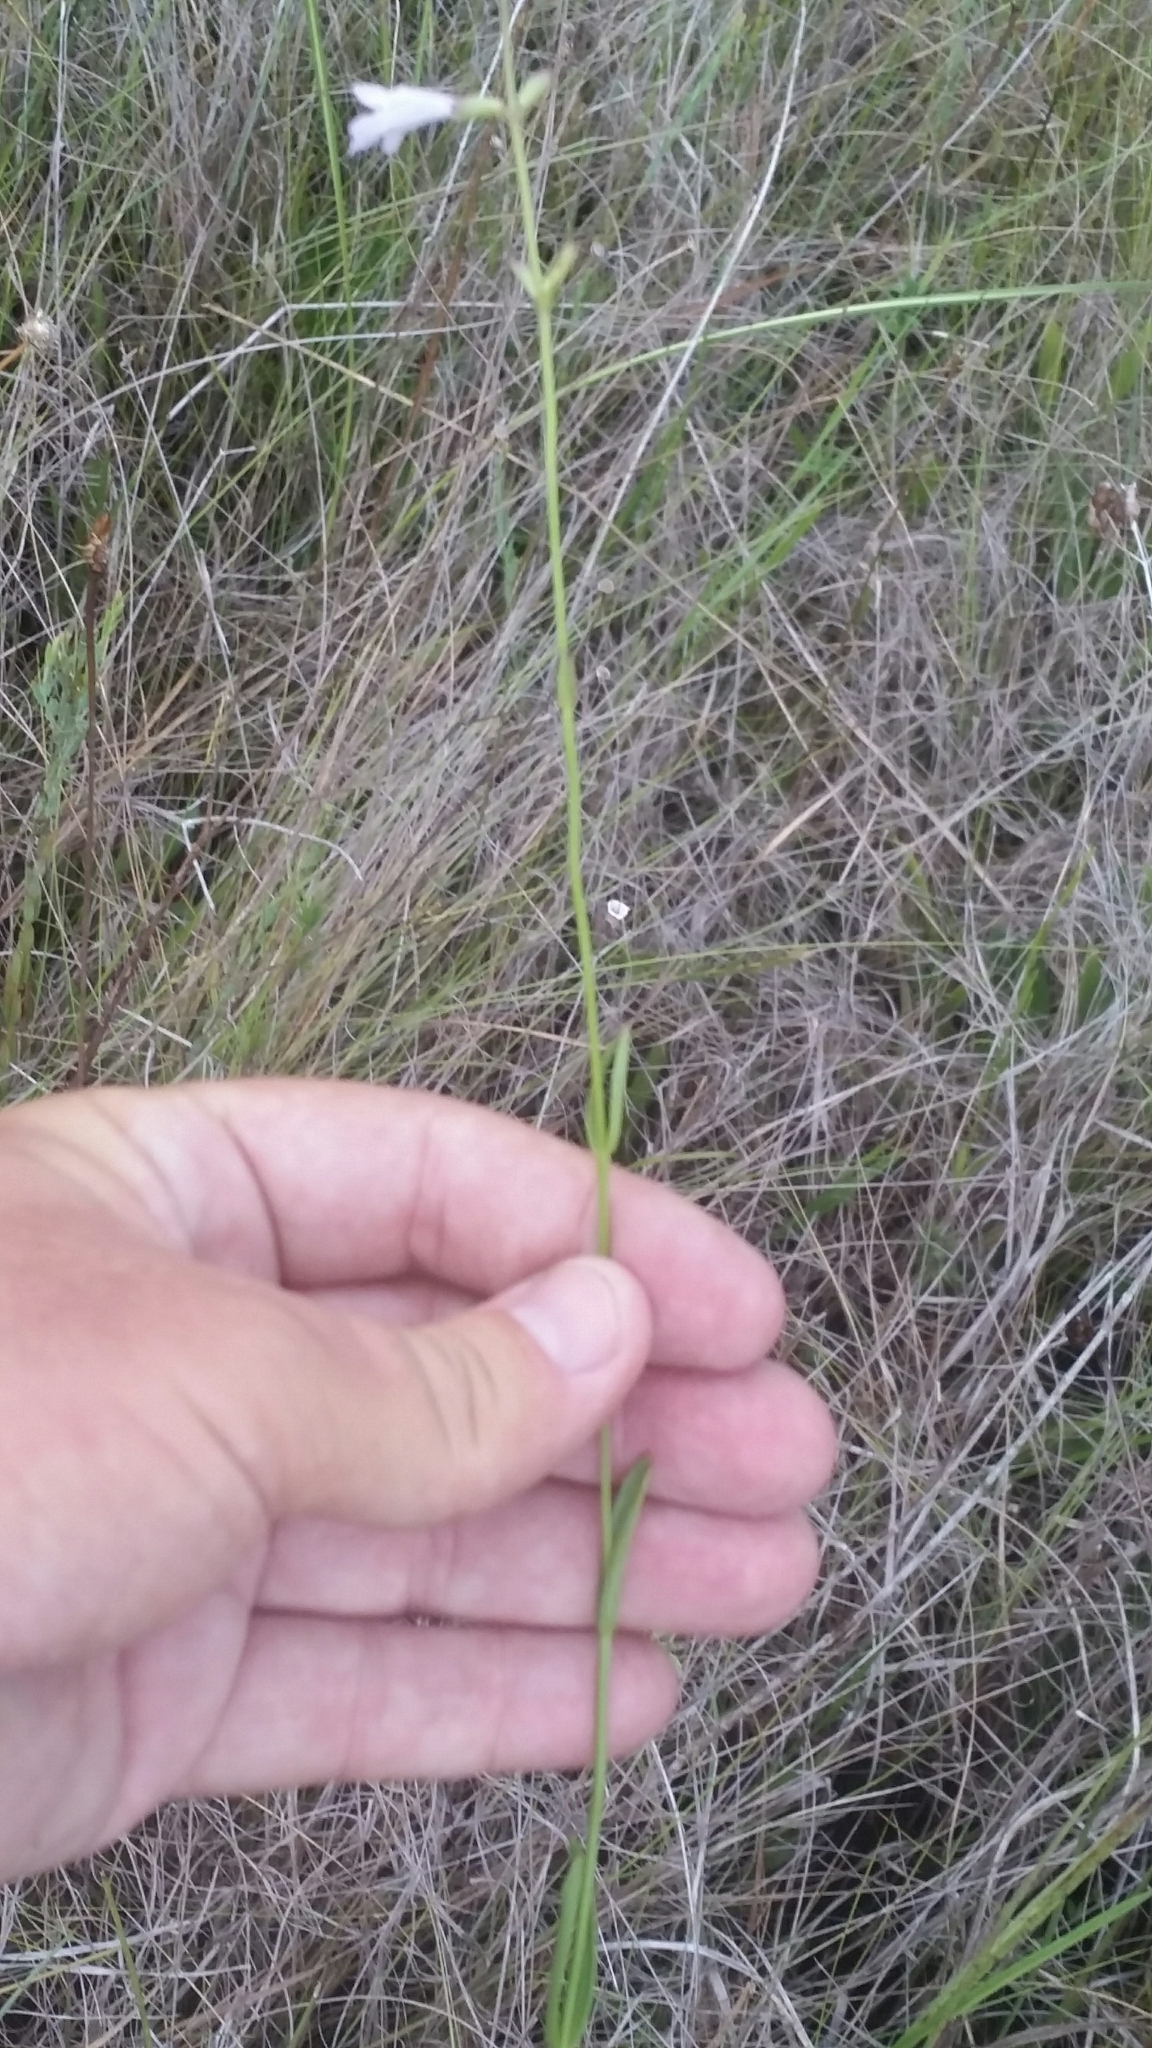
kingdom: Plantae
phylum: Tracheophyta
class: Magnoliopsida
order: Lamiales
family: Lamiaceae
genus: Physostegia
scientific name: Physostegia godfreyi
